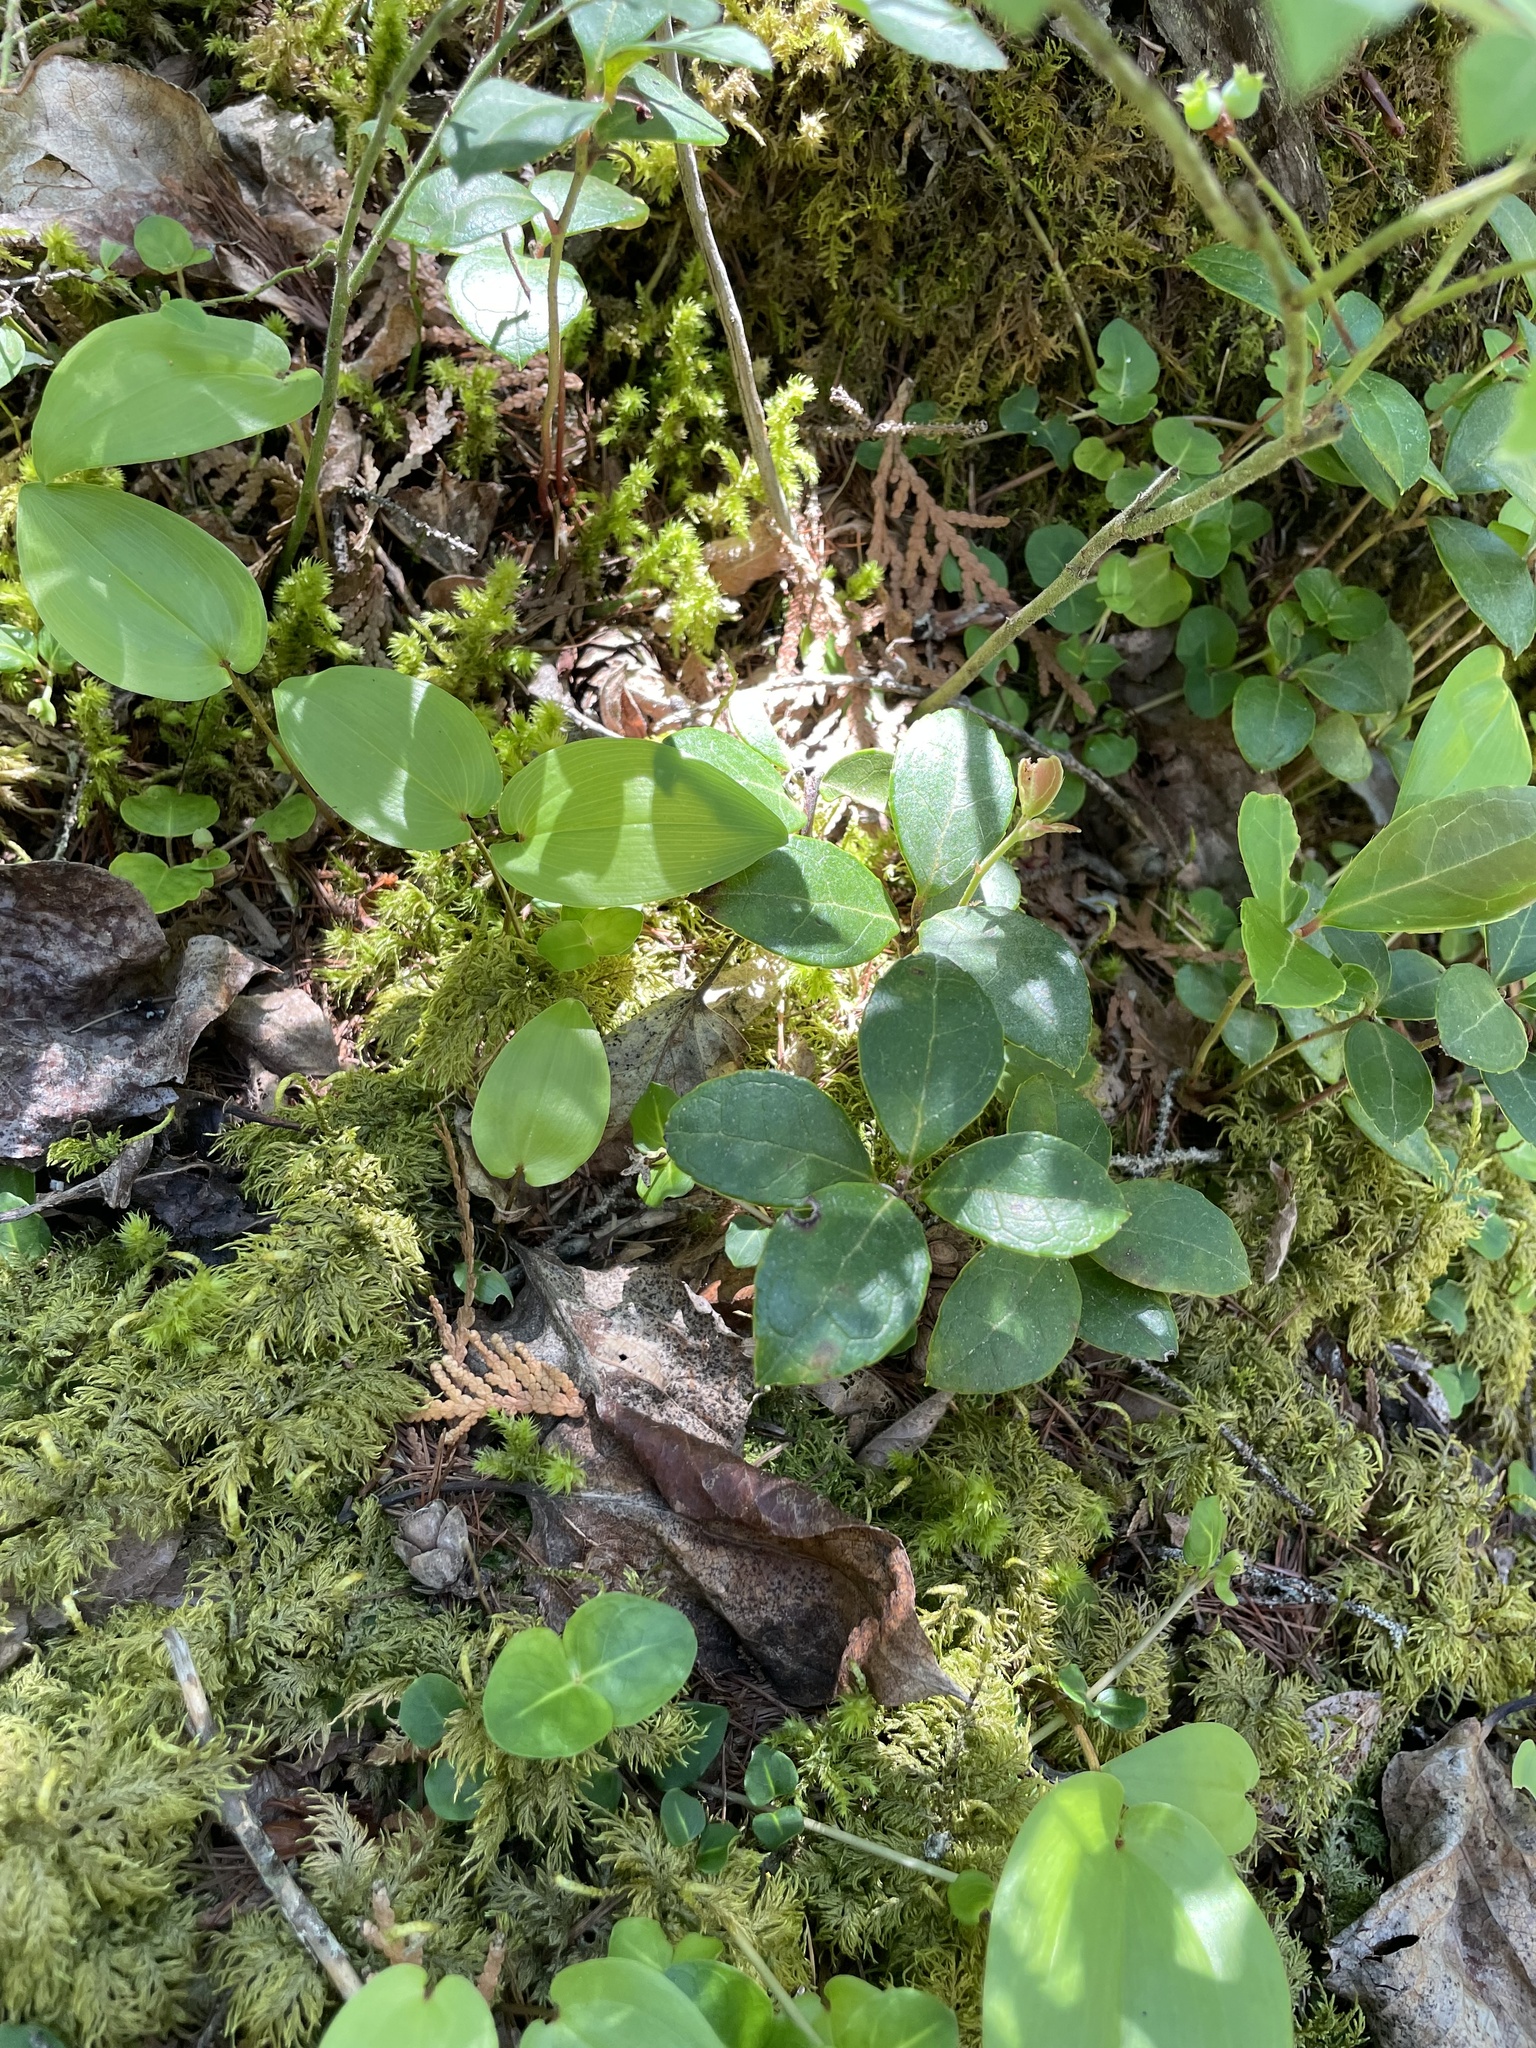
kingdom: Plantae
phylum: Tracheophyta
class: Magnoliopsida
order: Ericales
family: Ericaceae
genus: Gaultheria
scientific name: Gaultheria procumbens
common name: Checkerberry
